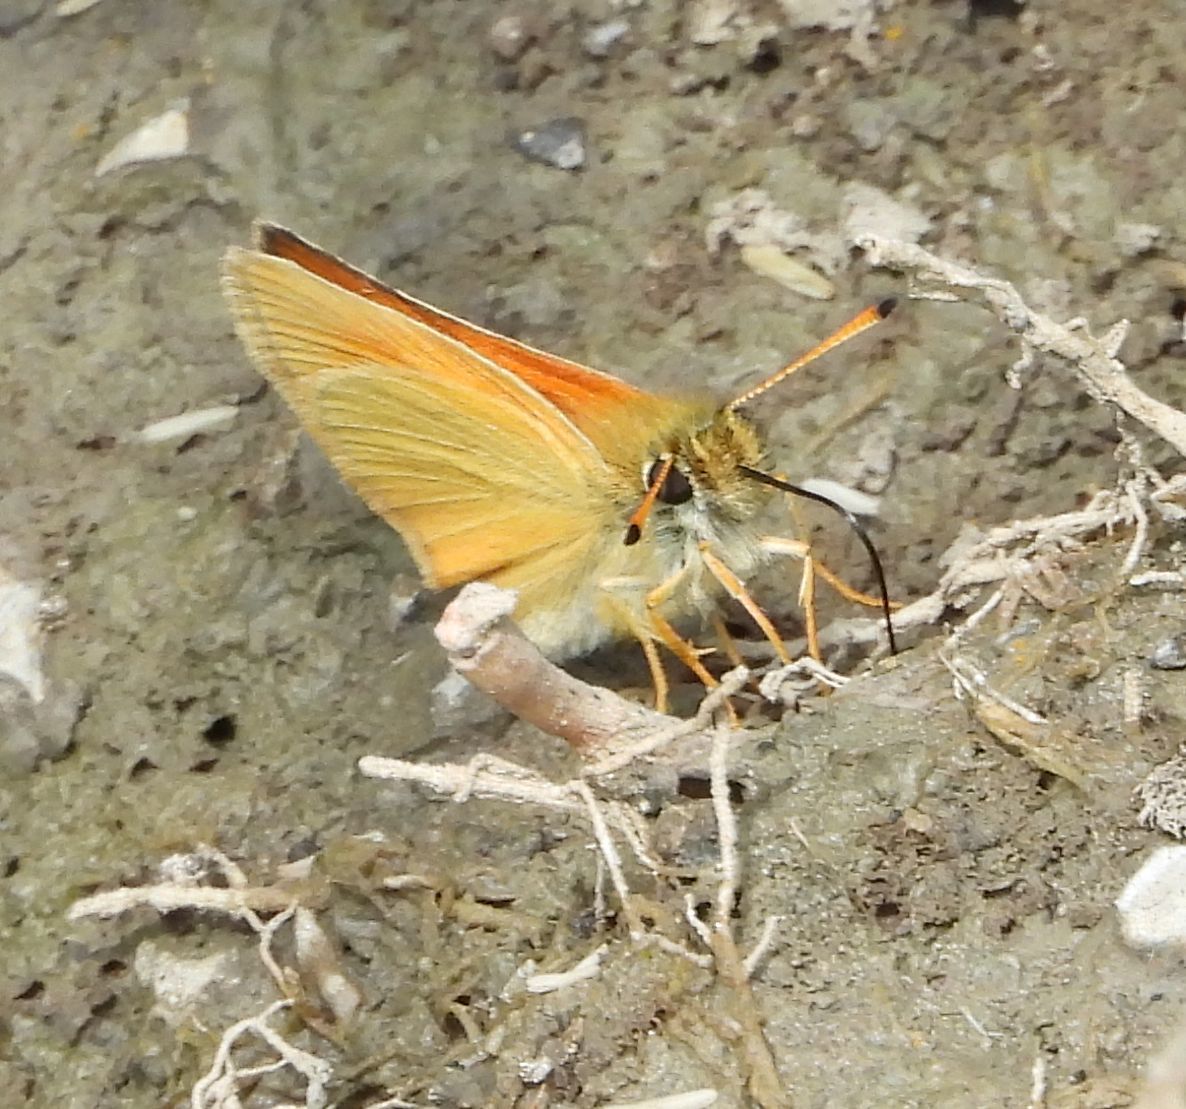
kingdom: Animalia
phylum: Arthropoda
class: Insecta
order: Lepidoptera
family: Hesperiidae
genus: Thymelicus
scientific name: Thymelicus lineola
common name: Essex skipper
